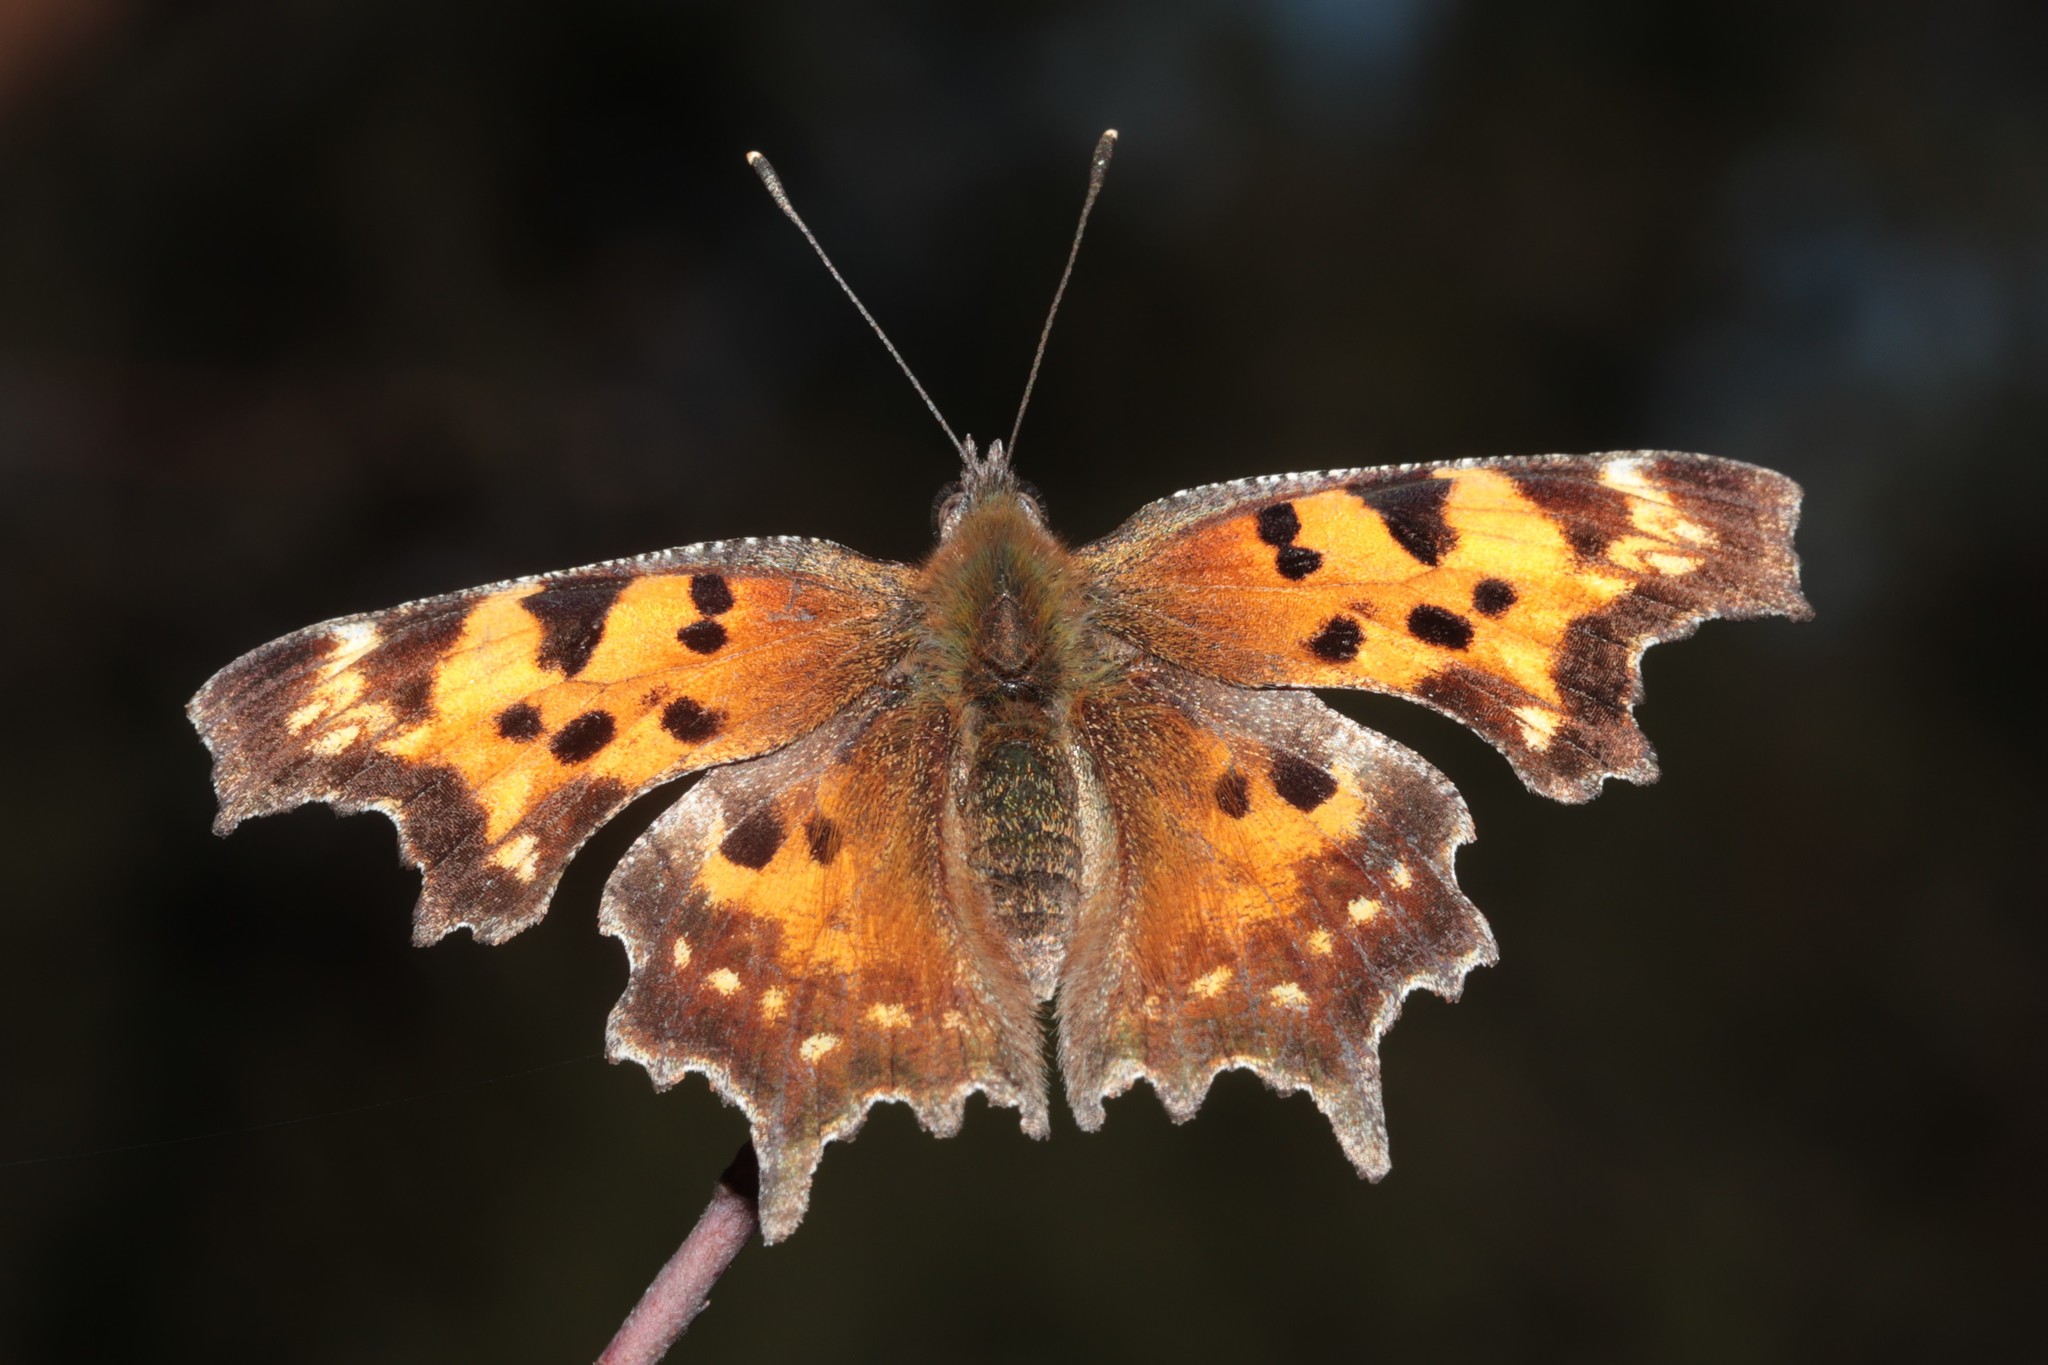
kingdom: Animalia
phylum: Arthropoda
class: Insecta
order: Lepidoptera
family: Nymphalidae
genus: Polygonia
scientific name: Polygonia faunus
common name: Green comma
